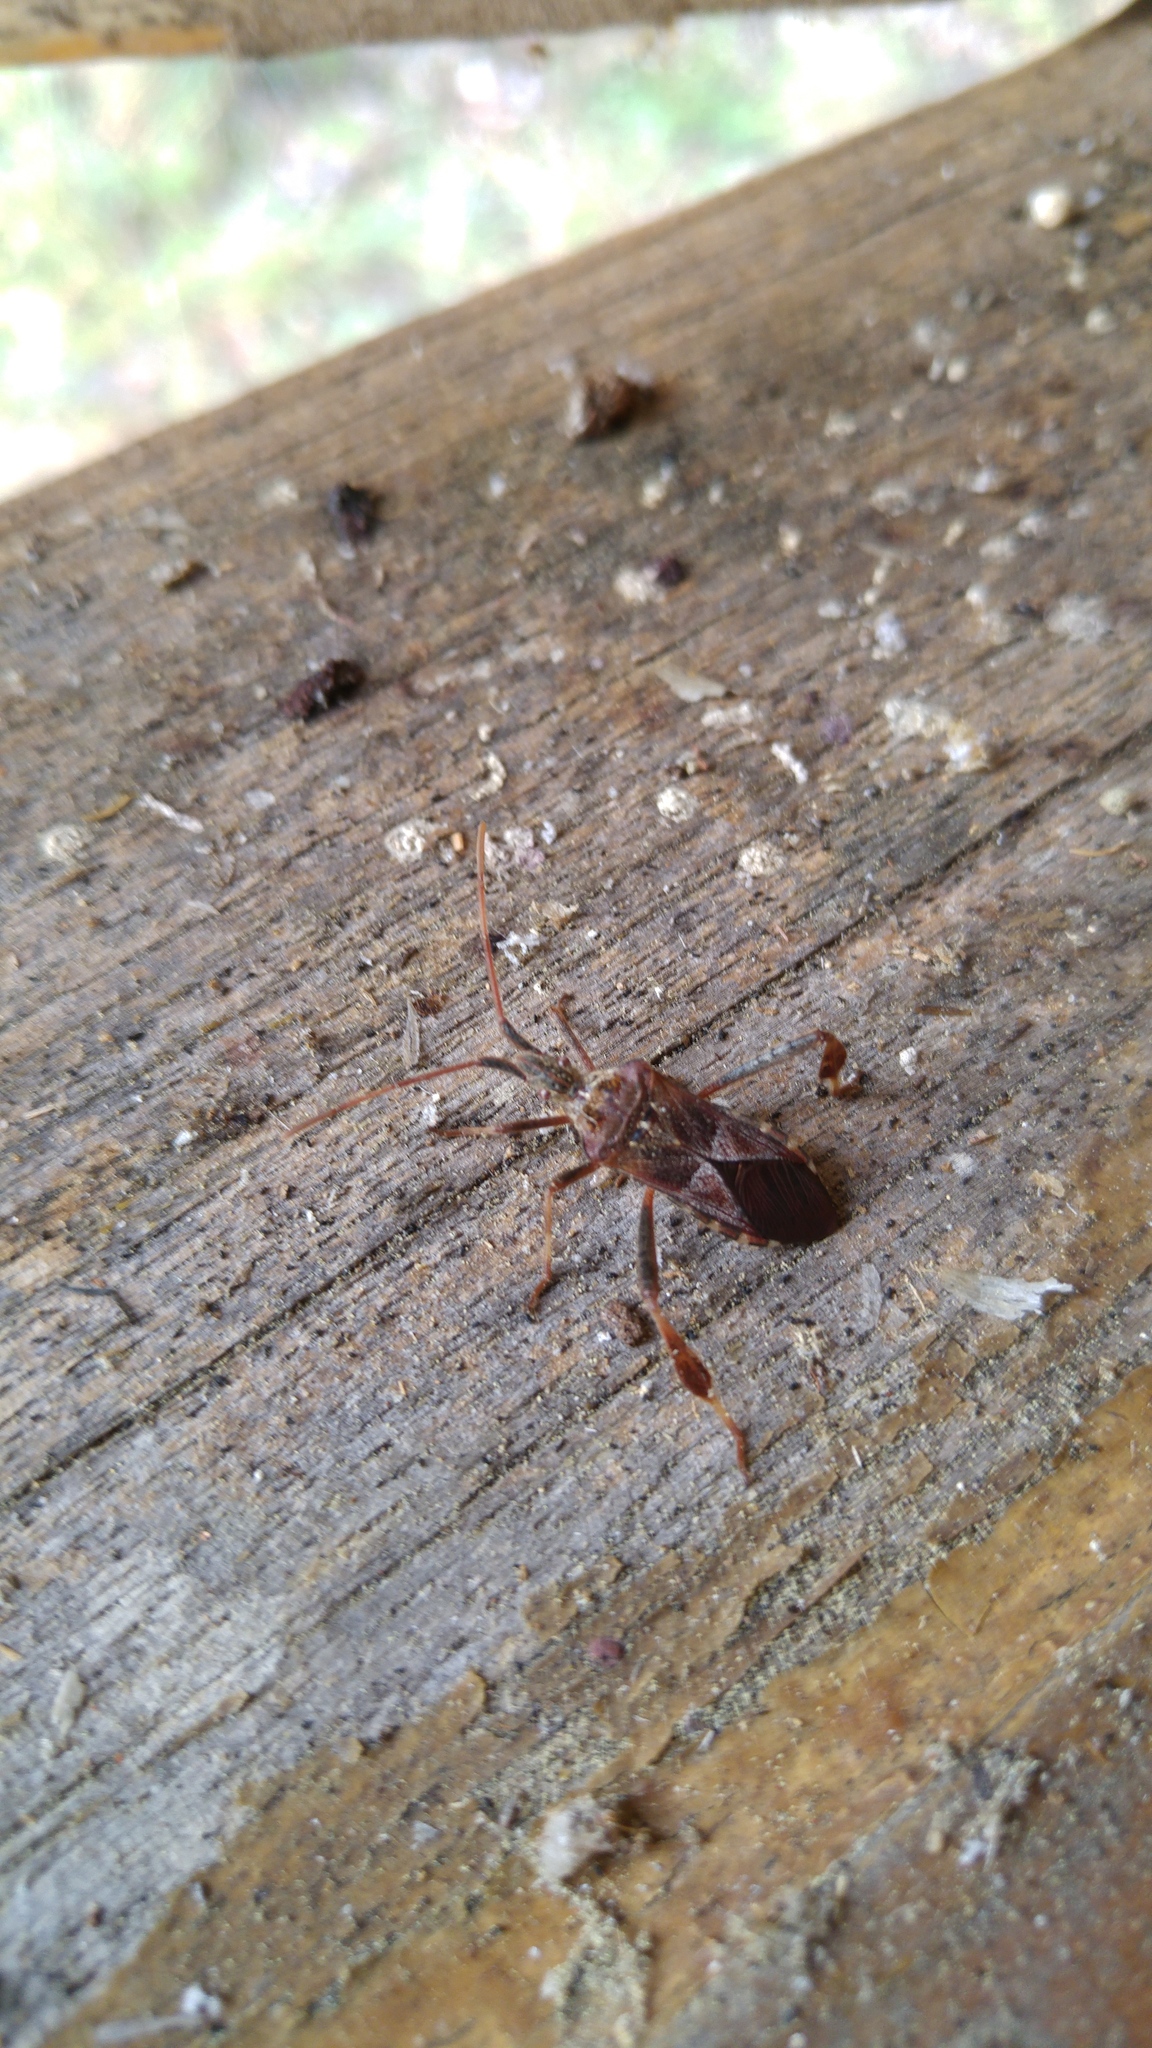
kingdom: Animalia
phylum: Arthropoda
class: Insecta
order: Hemiptera
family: Coreidae
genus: Leptoglossus
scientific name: Leptoglossus occidentalis
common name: Western conifer-seed bug
